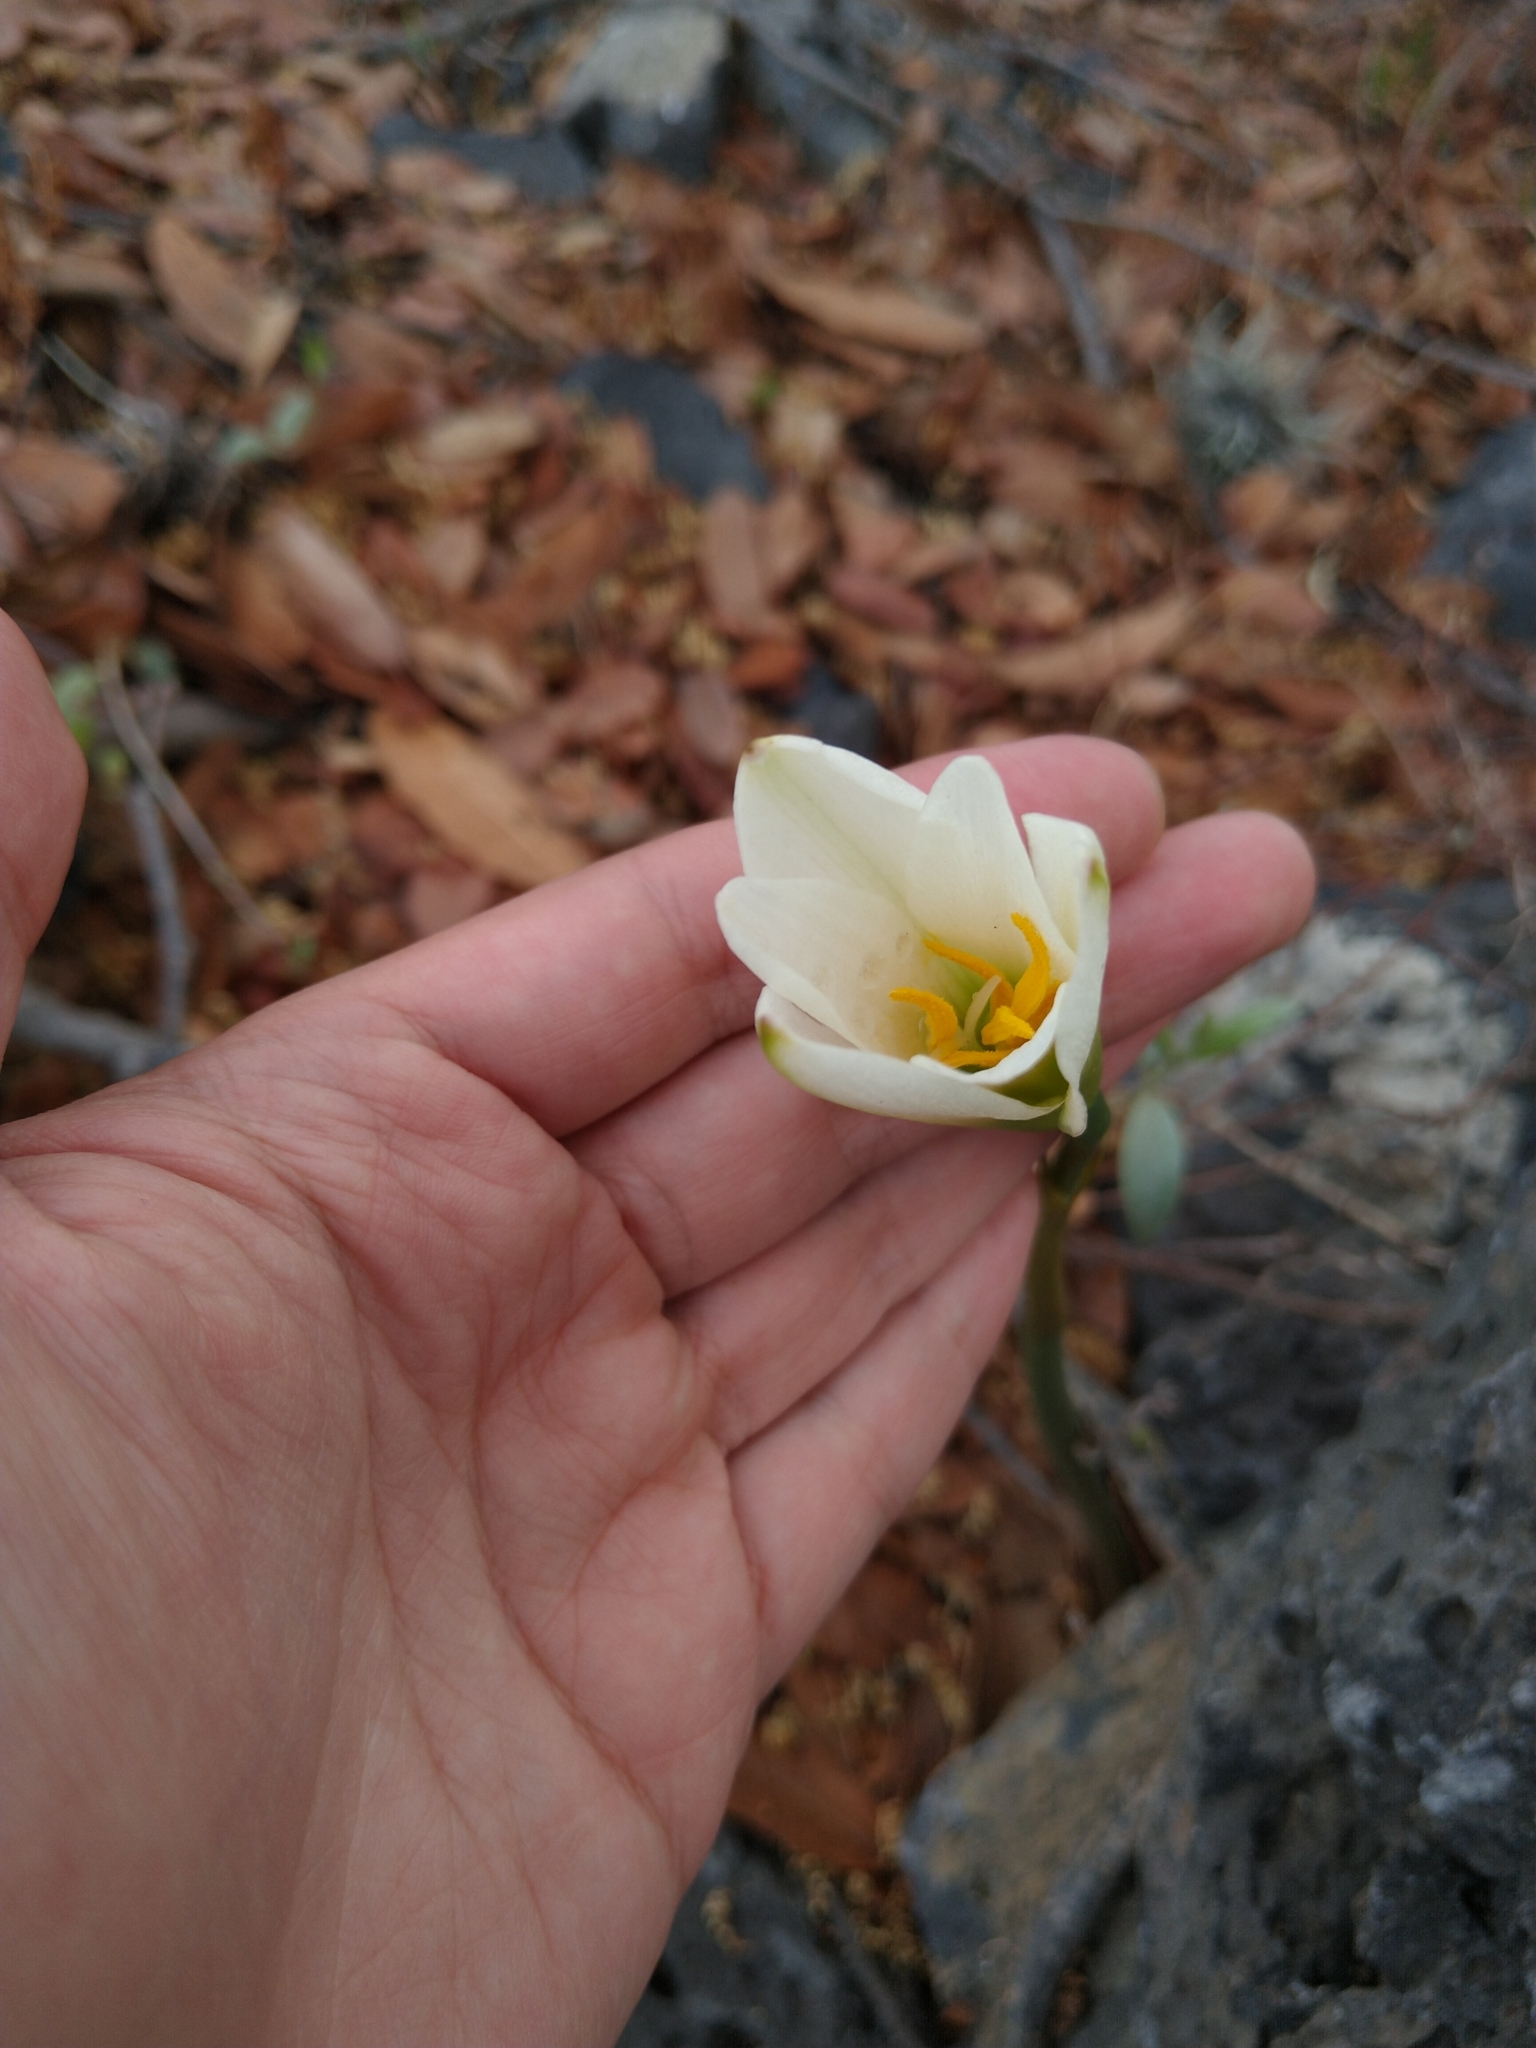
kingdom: Plantae
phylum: Tracheophyta
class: Liliopsida
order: Asparagales
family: Amaryllidaceae
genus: Zephyranthes
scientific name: Zephyranthes alba
